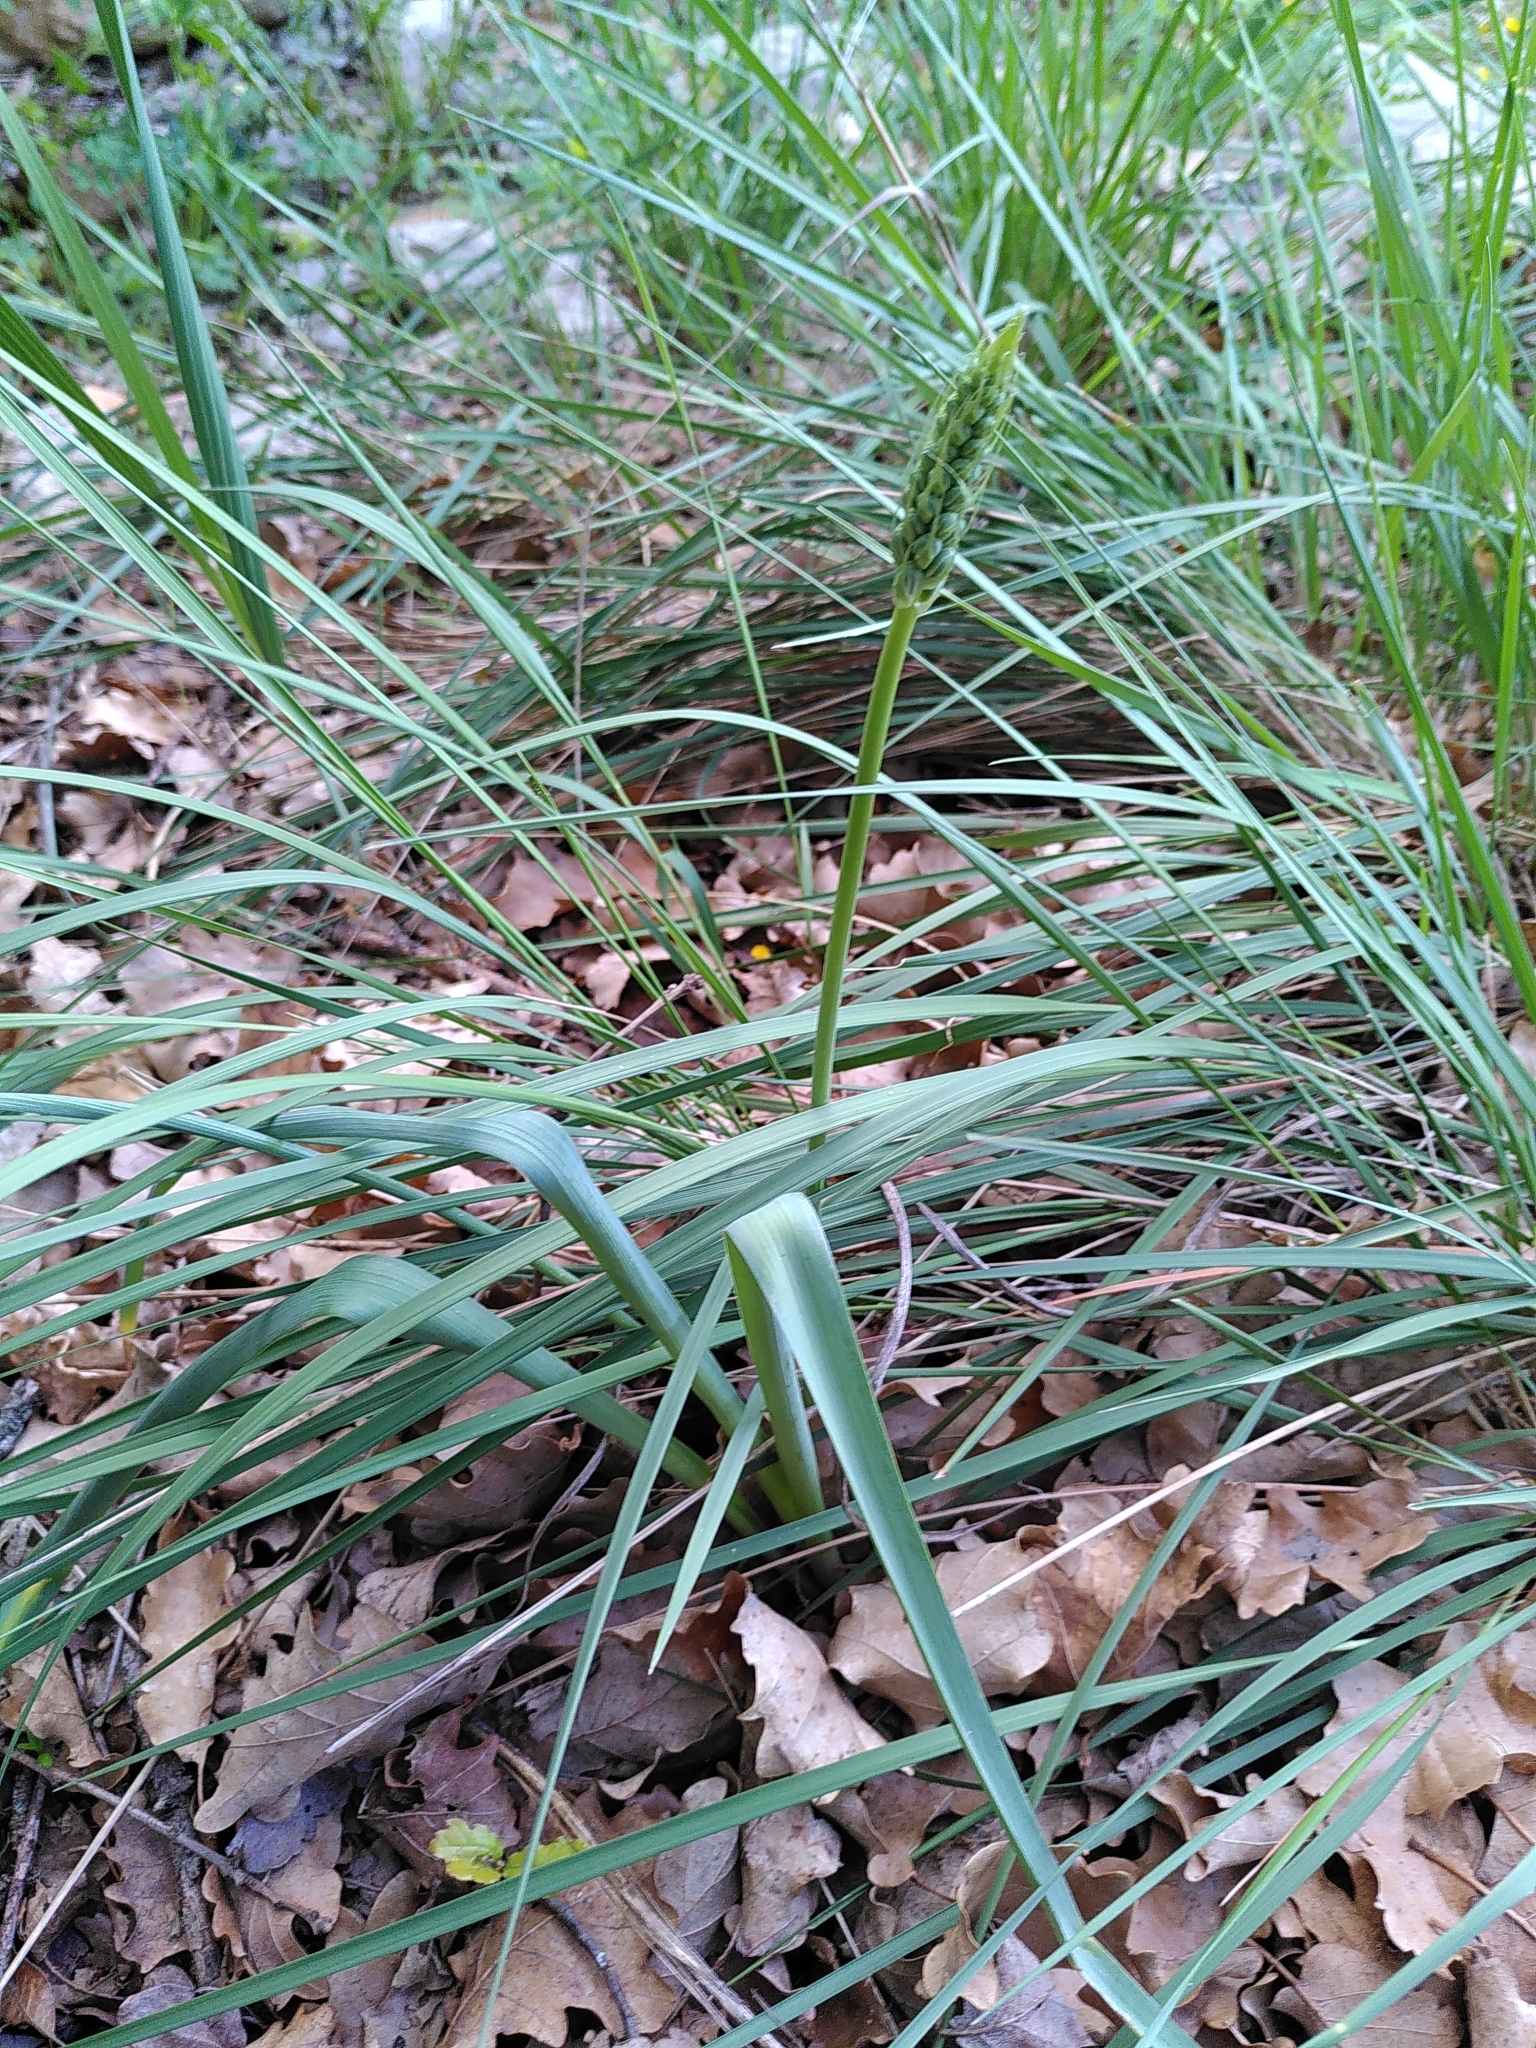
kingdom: Plantae
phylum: Tracheophyta
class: Liliopsida
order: Asparagales
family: Asparagaceae
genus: Ornithogalum
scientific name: Ornithogalum narbonense
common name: Bath-asparagus
